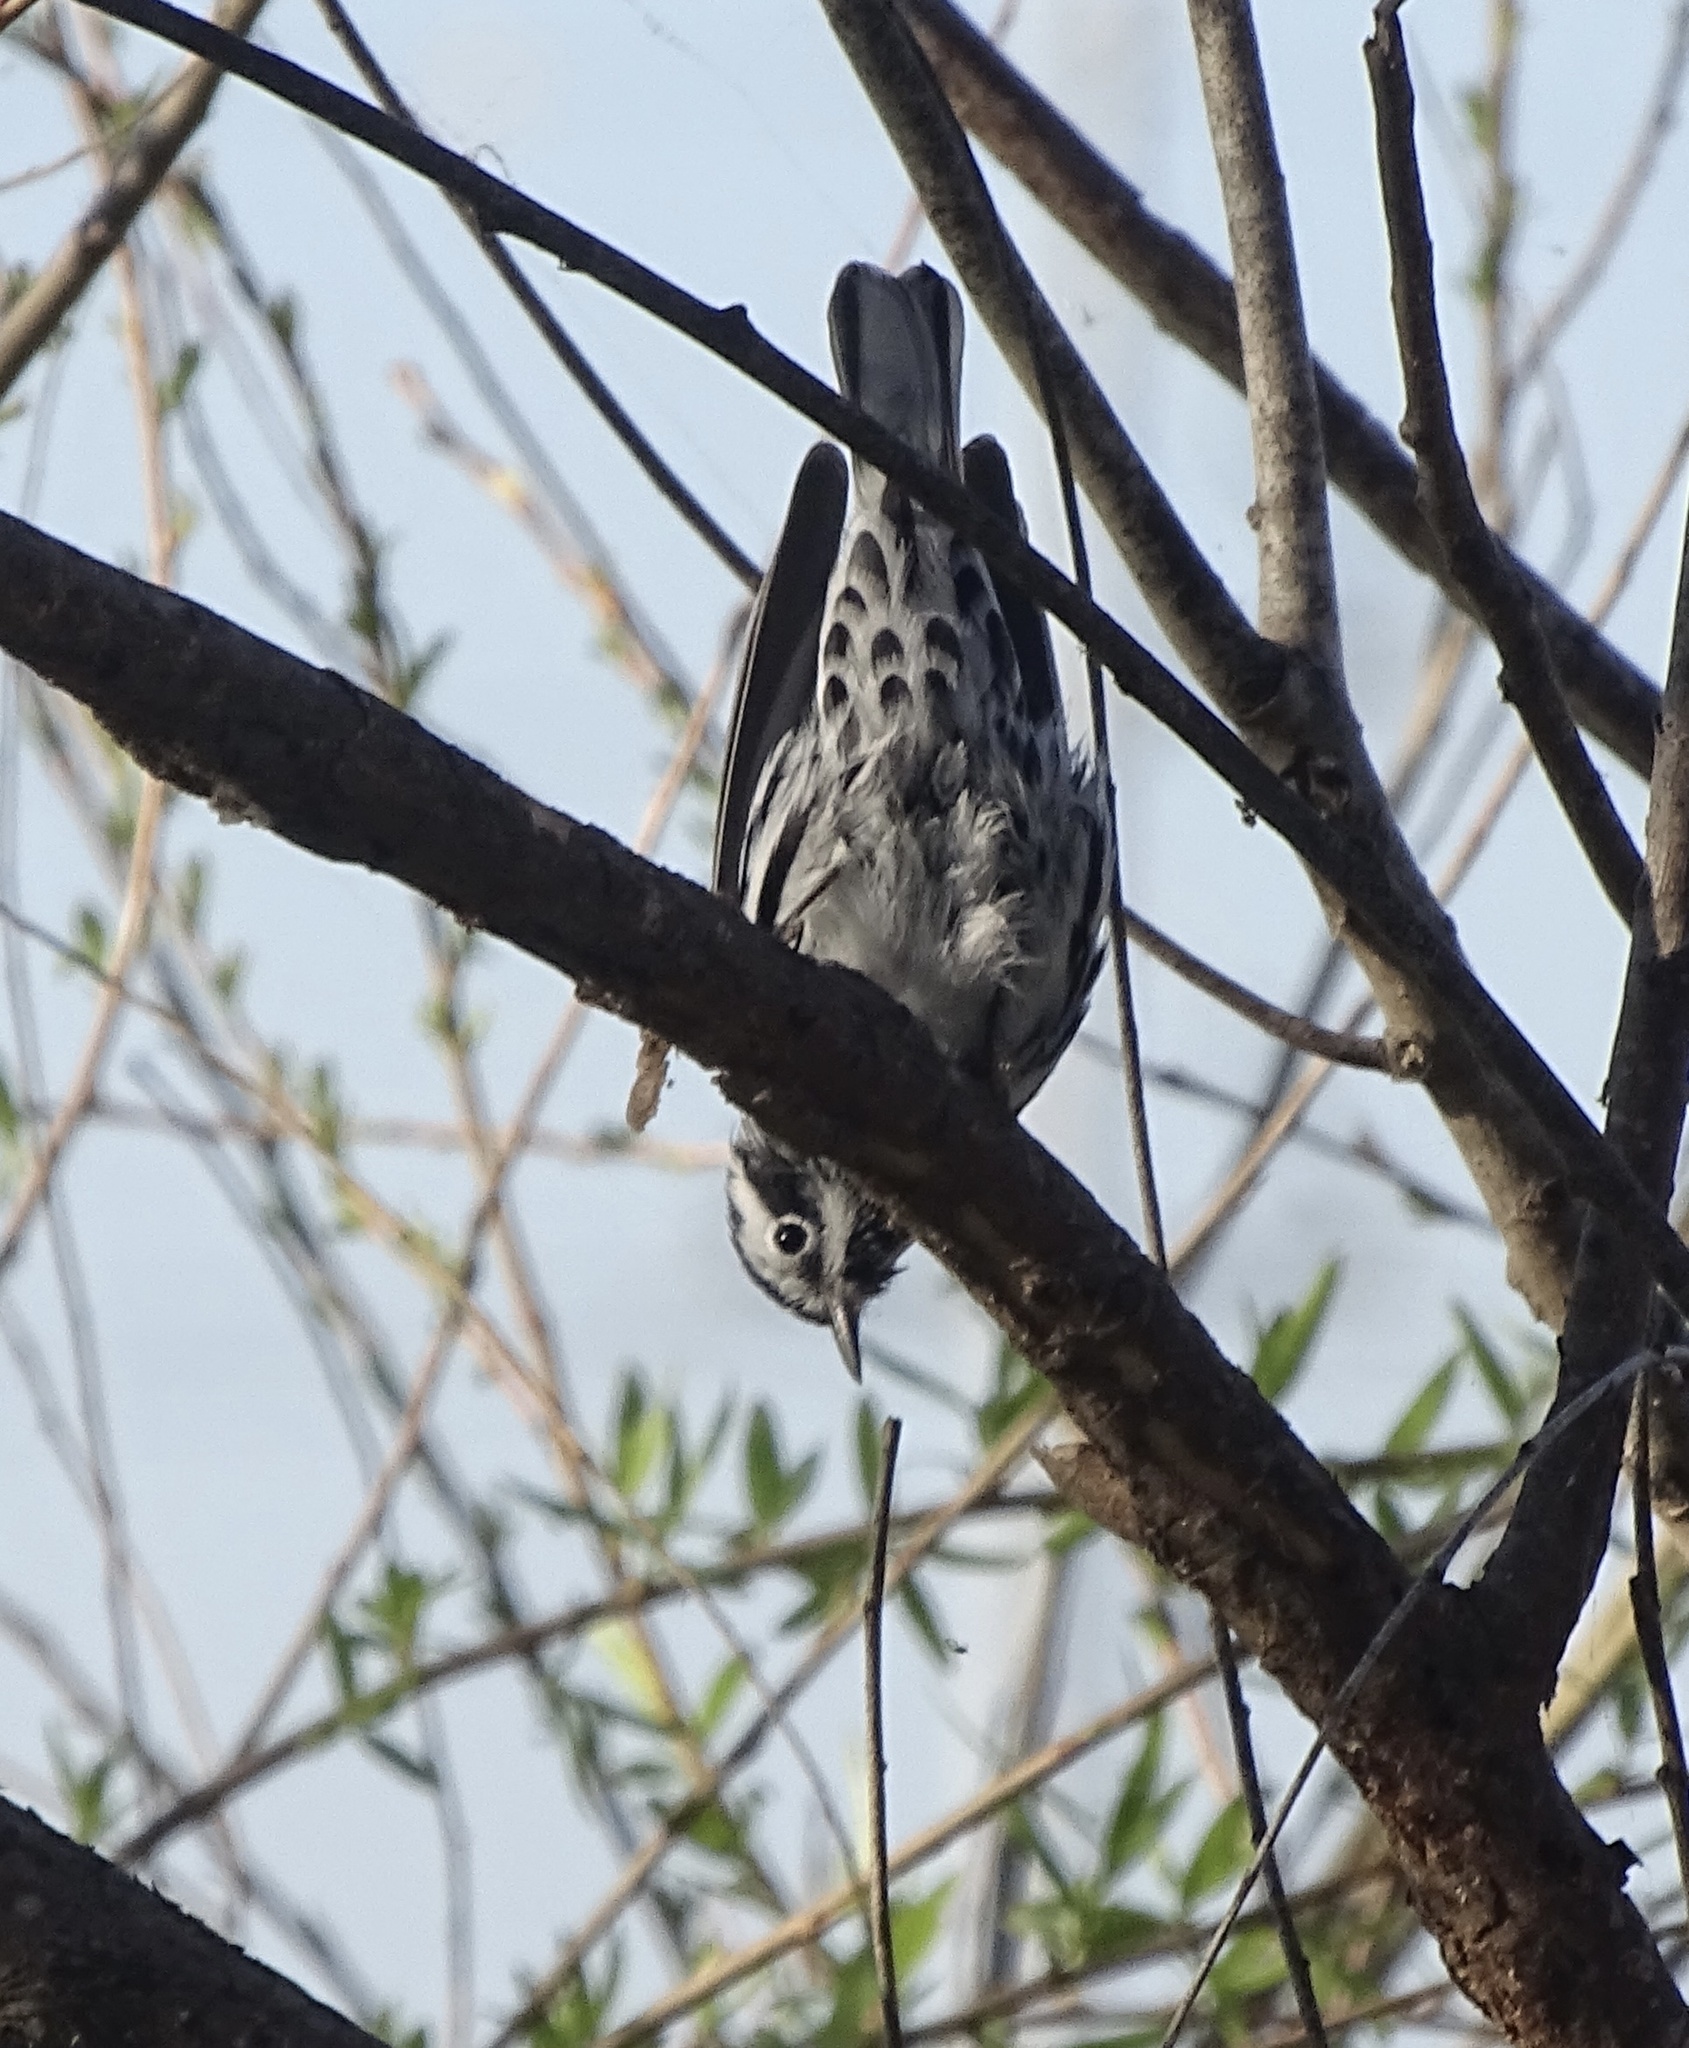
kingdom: Animalia
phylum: Chordata
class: Aves
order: Passeriformes
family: Parulidae
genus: Mniotilta
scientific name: Mniotilta varia
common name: Black-and-white warbler
